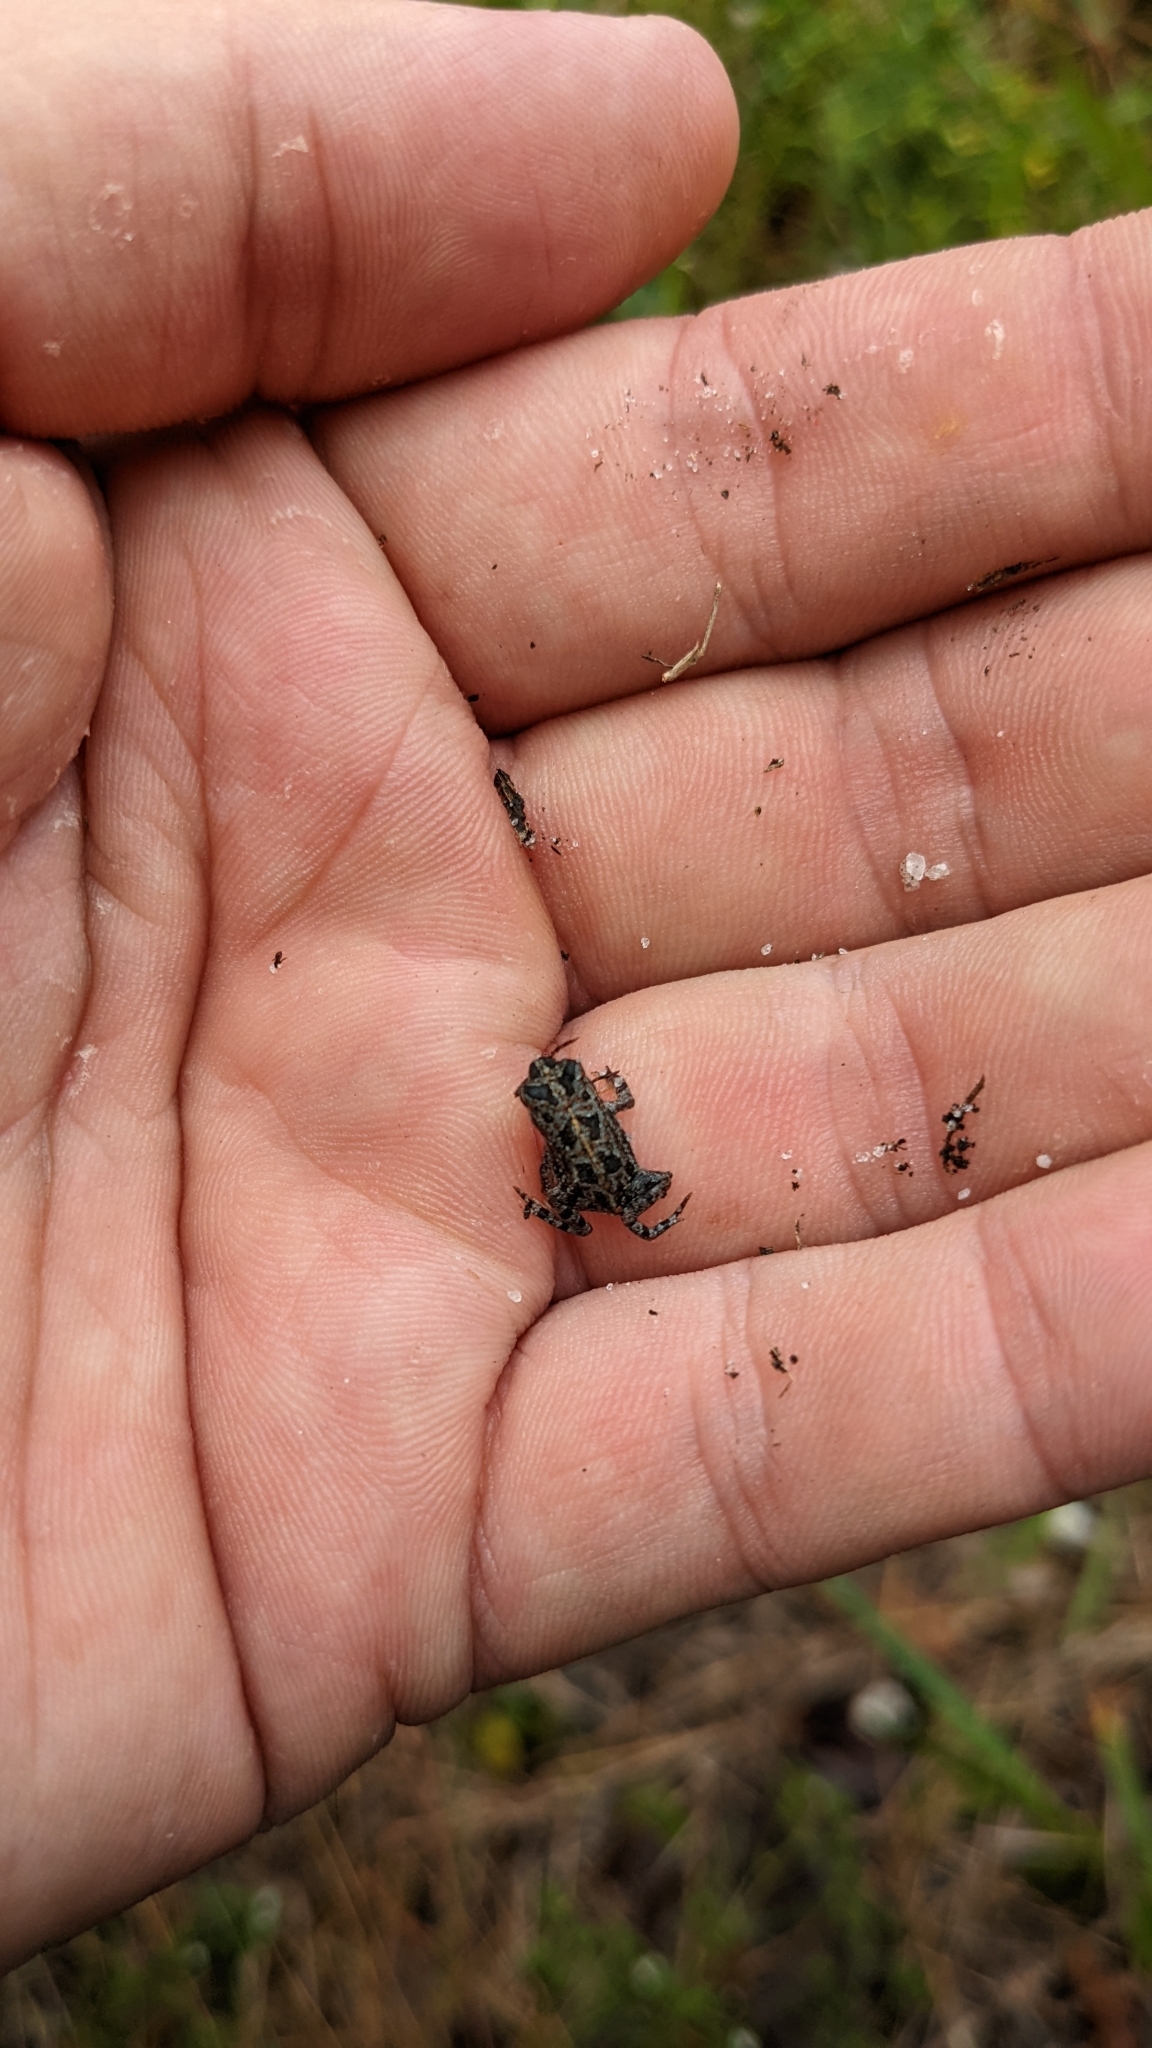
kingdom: Animalia
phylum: Chordata
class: Amphibia
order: Anura
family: Bufonidae
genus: Anaxyrus
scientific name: Anaxyrus quercicus
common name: Oak toad
